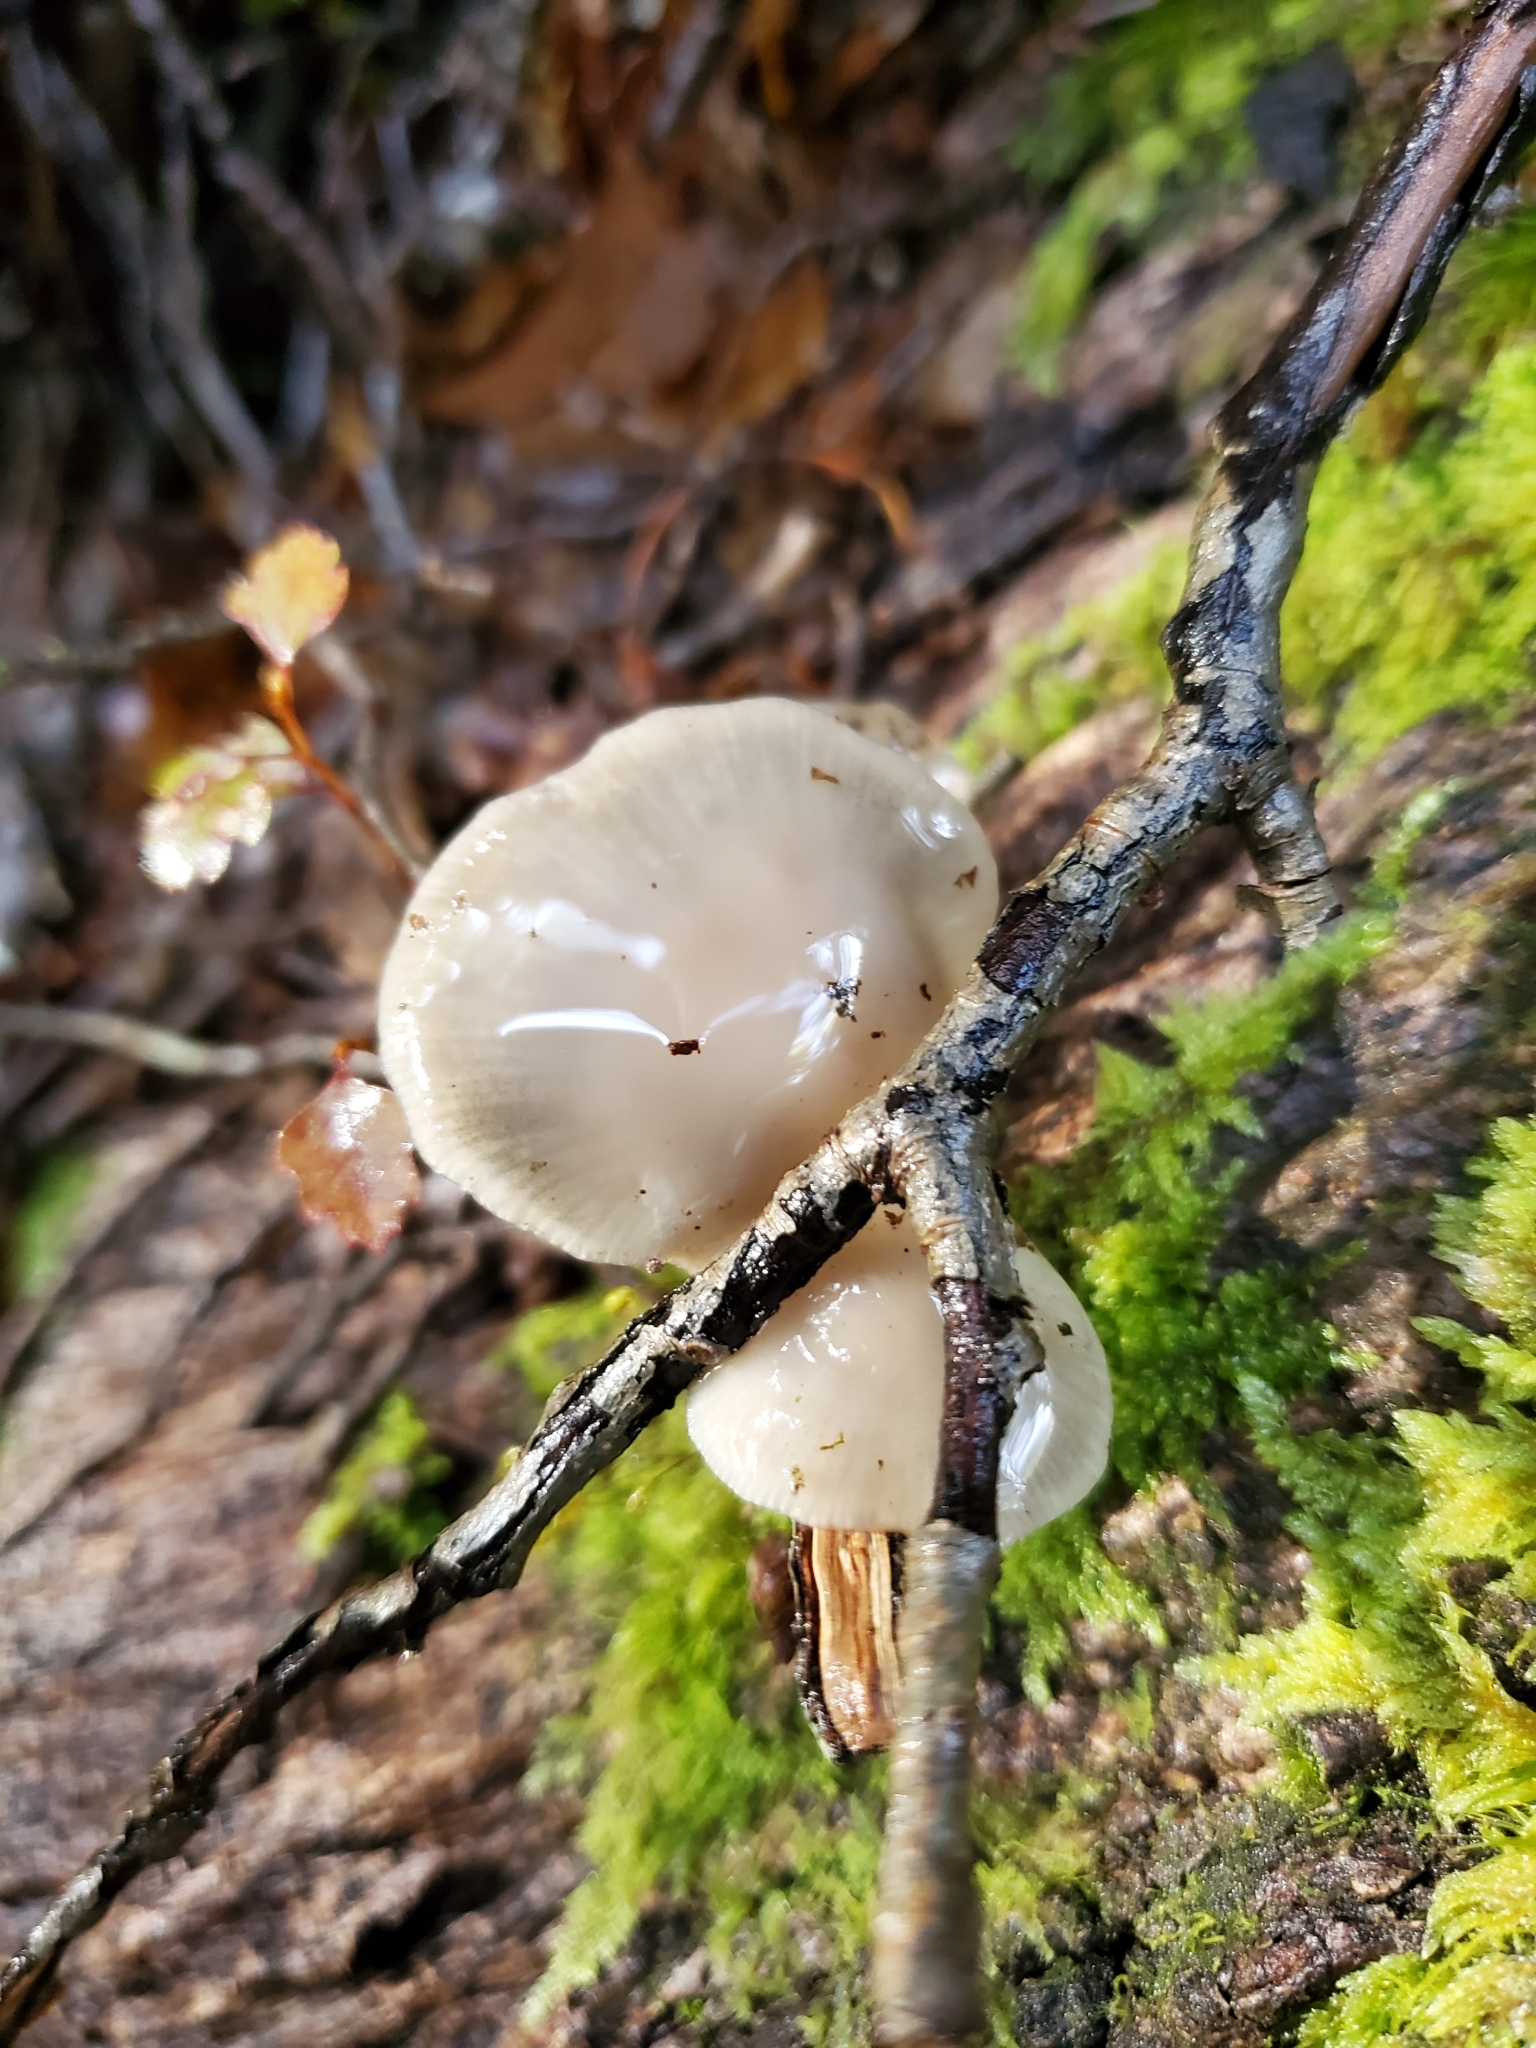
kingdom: Fungi
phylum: Basidiomycota
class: Agaricomycetes
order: Agaricales
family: Mycenaceae
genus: Panellus
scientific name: Panellus longinquus
